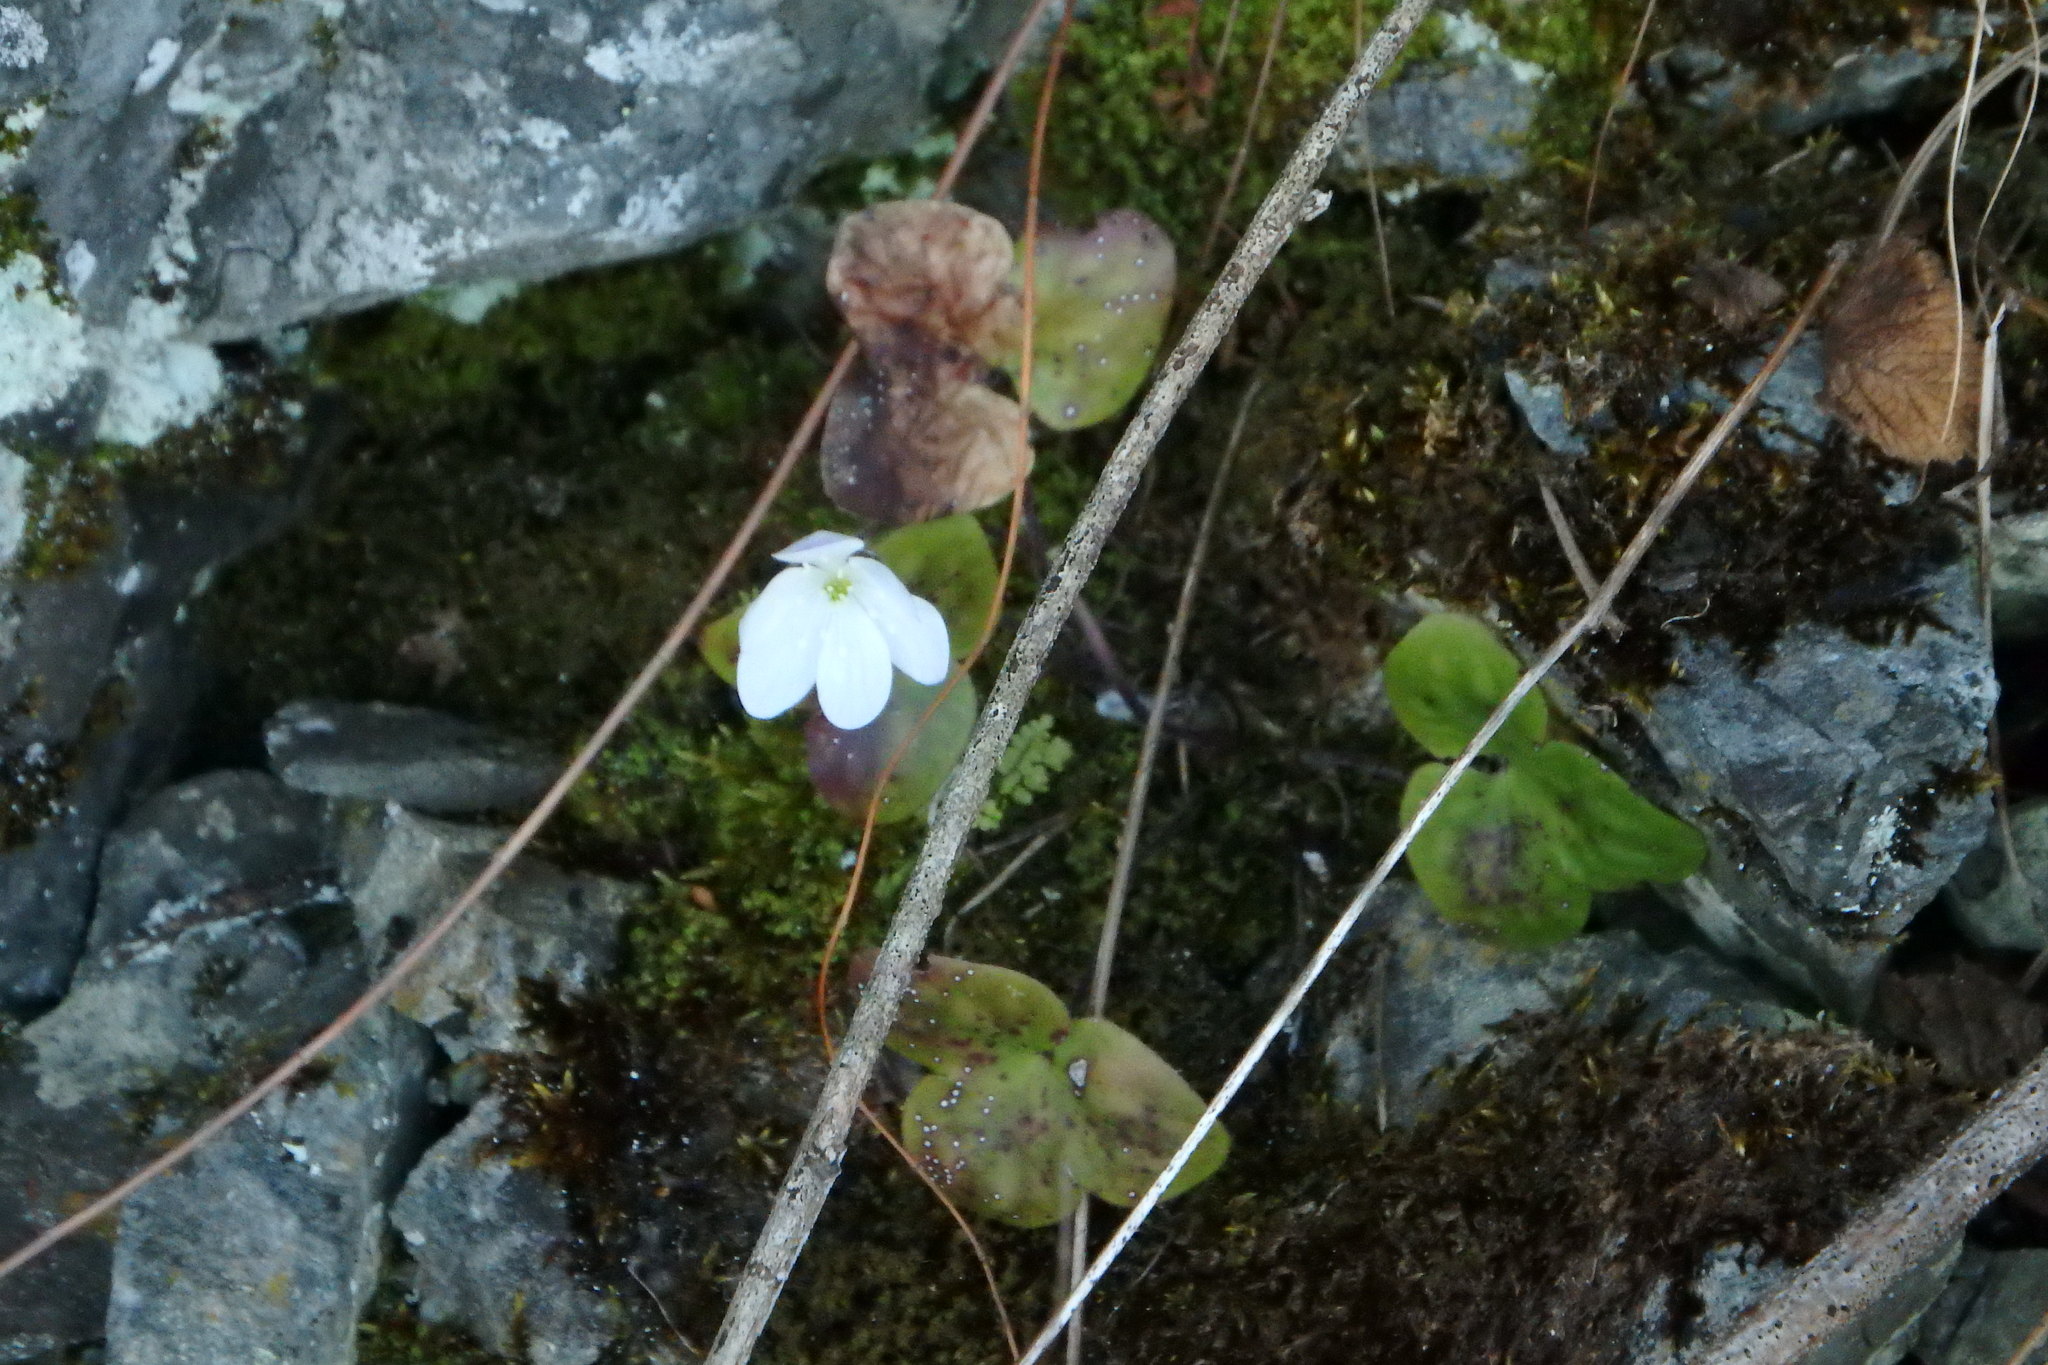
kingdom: Plantae
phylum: Tracheophyta
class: Magnoliopsida
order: Ranunculales
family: Ranunculaceae
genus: Hepatica
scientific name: Hepatica nobilis
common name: Liverleaf
